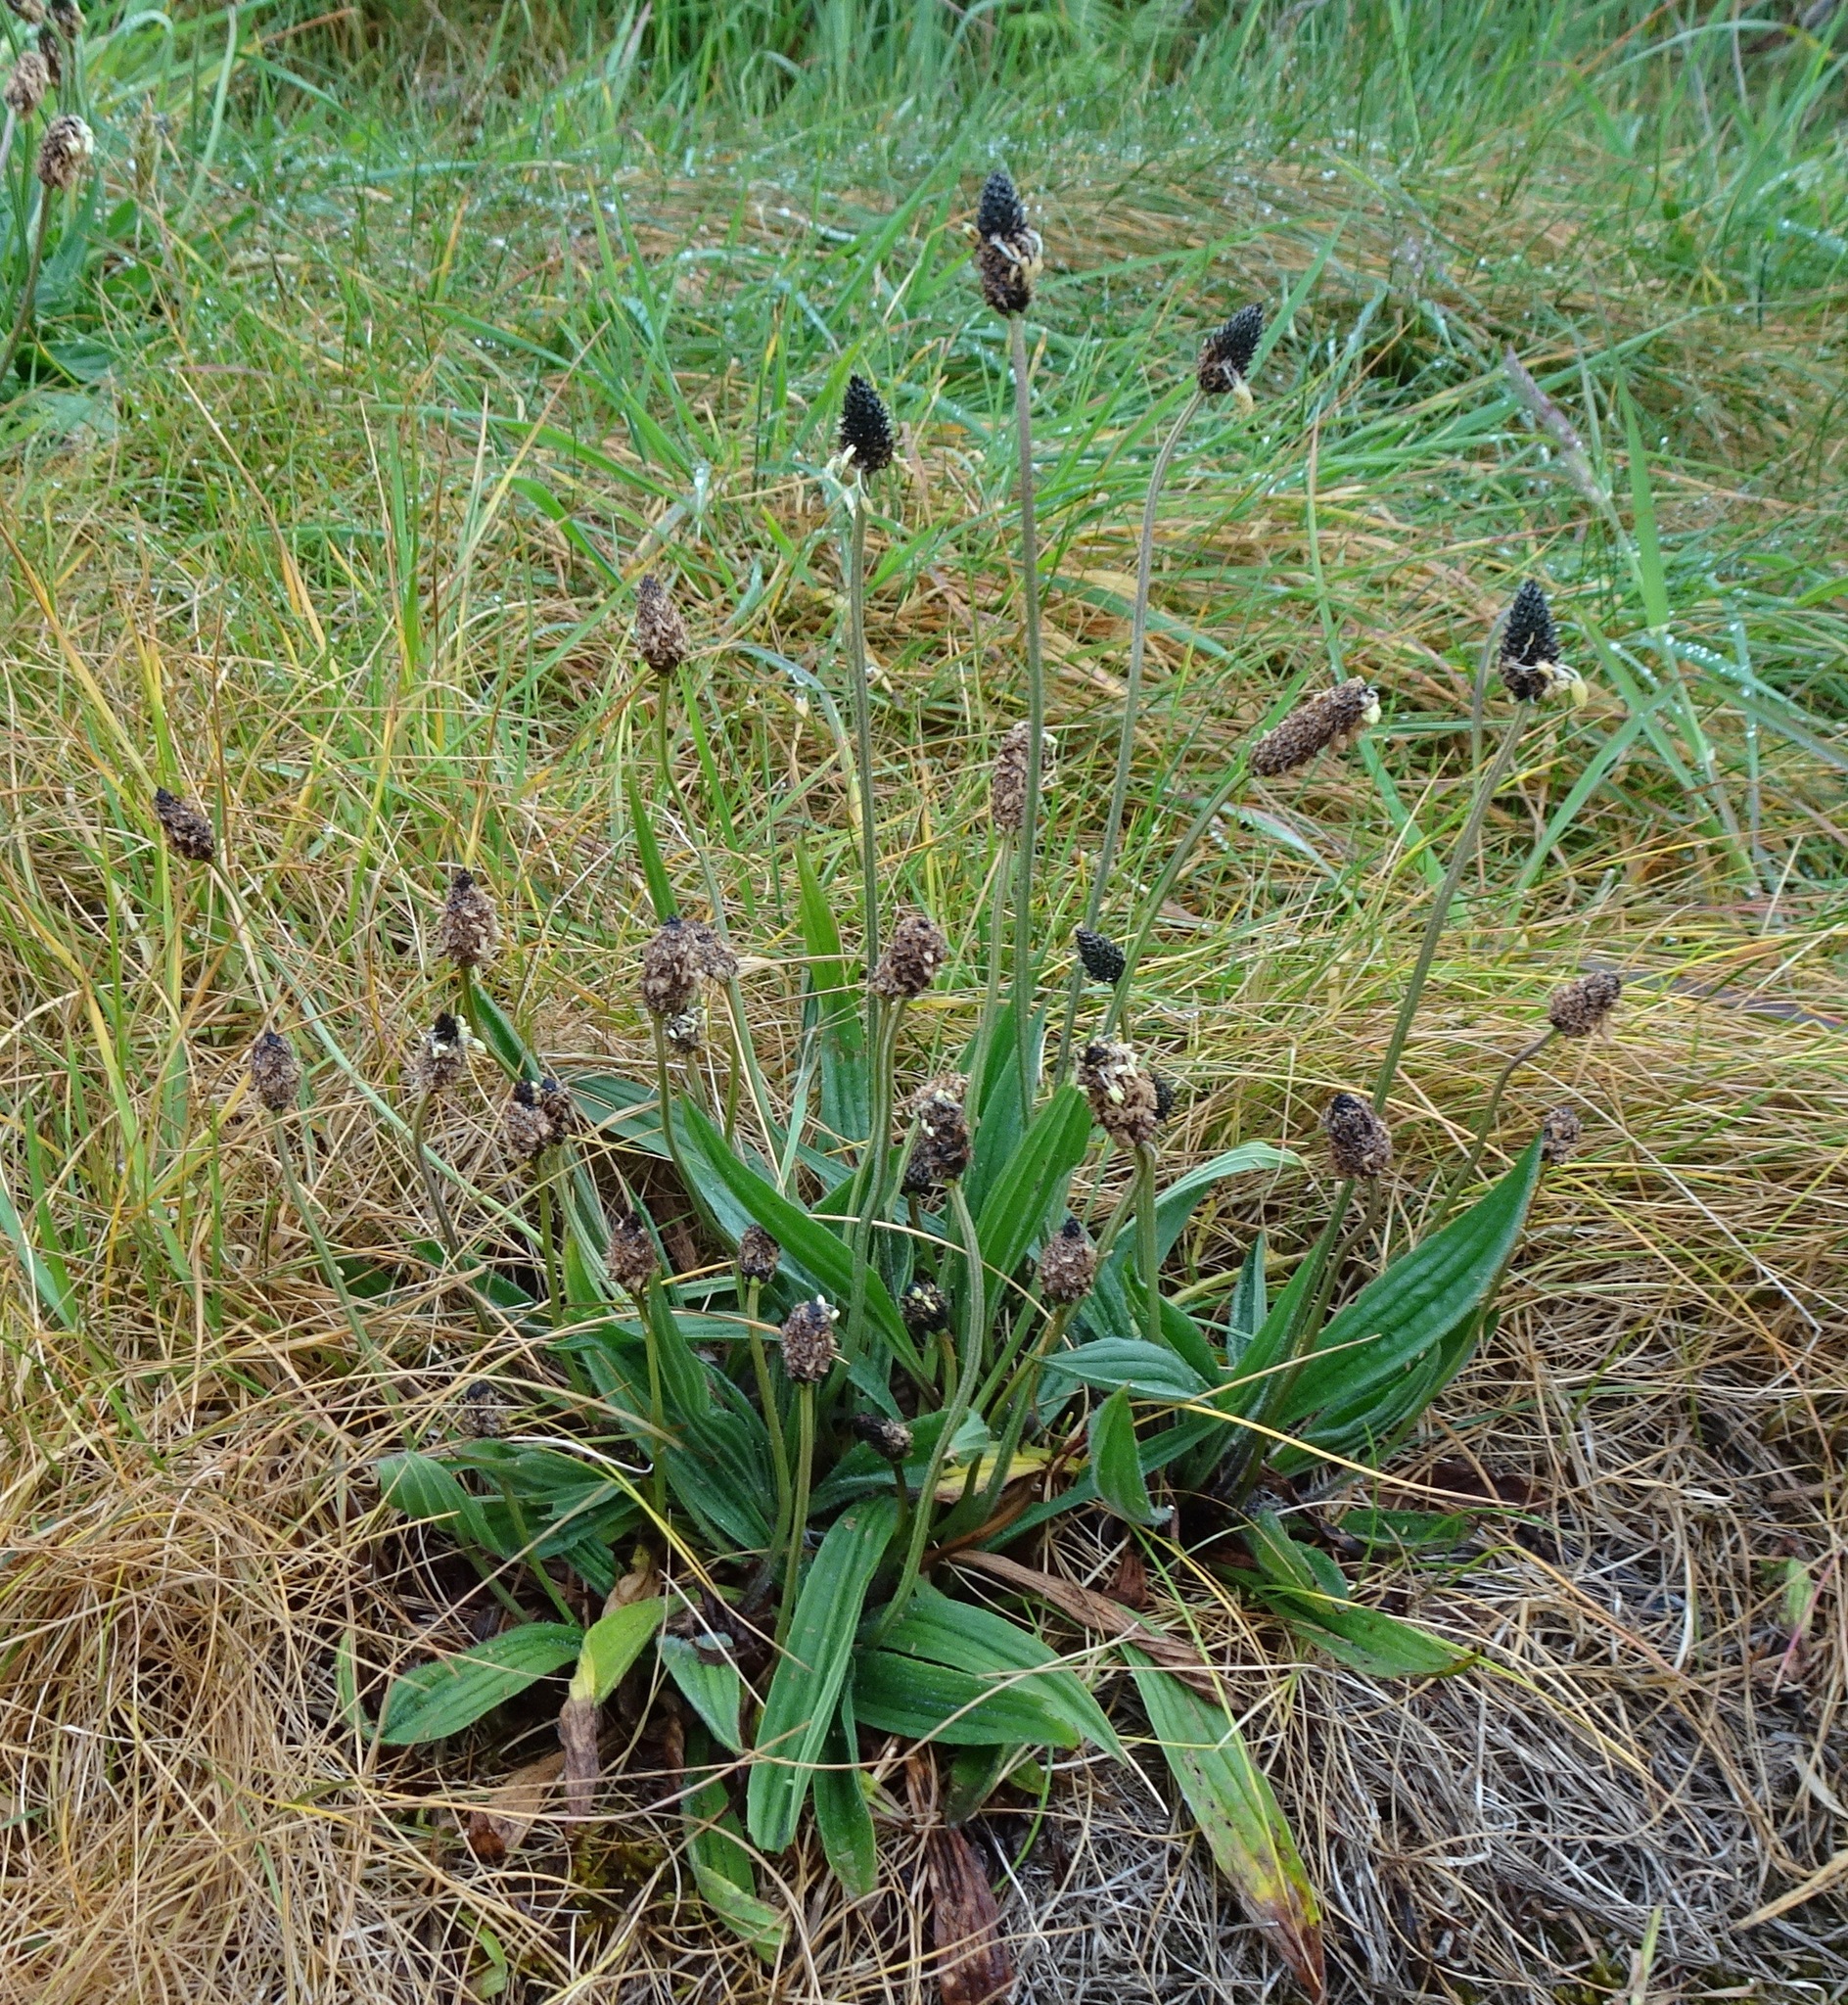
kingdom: Plantae
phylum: Tracheophyta
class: Magnoliopsida
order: Lamiales
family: Plantaginaceae
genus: Plantago
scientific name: Plantago lanceolata
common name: Ribwort plantain
